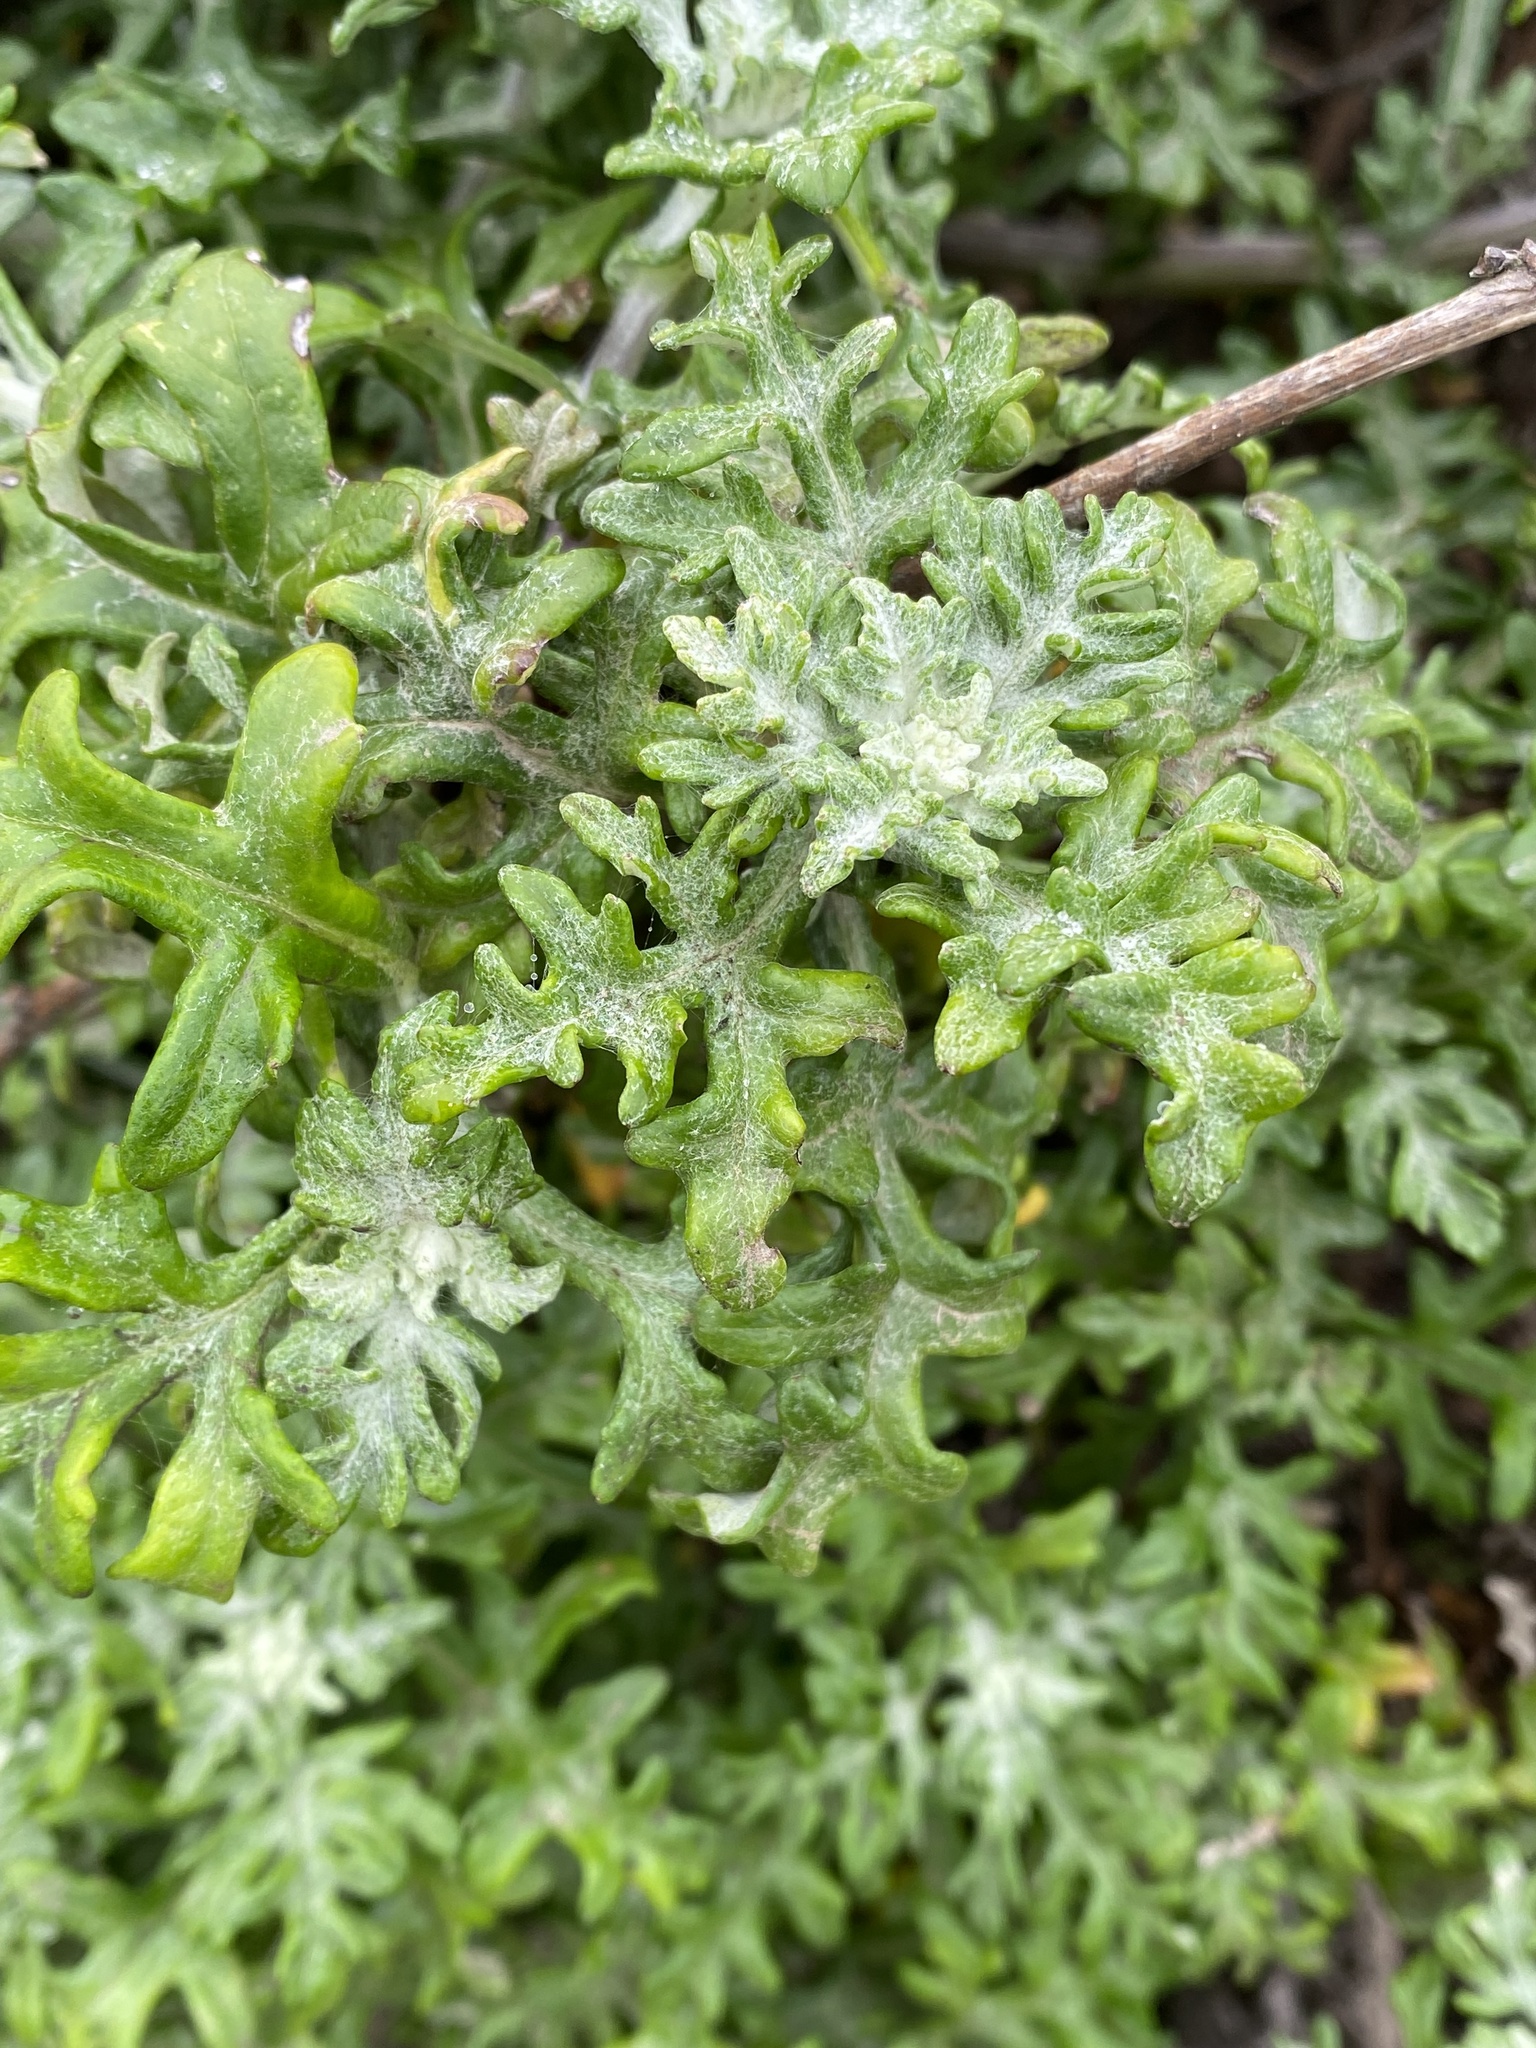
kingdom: Plantae
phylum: Tracheophyta
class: Magnoliopsida
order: Asterales
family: Asteraceae
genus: Eriophyllum
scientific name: Eriophyllum staechadifolium
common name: Lizardtail
